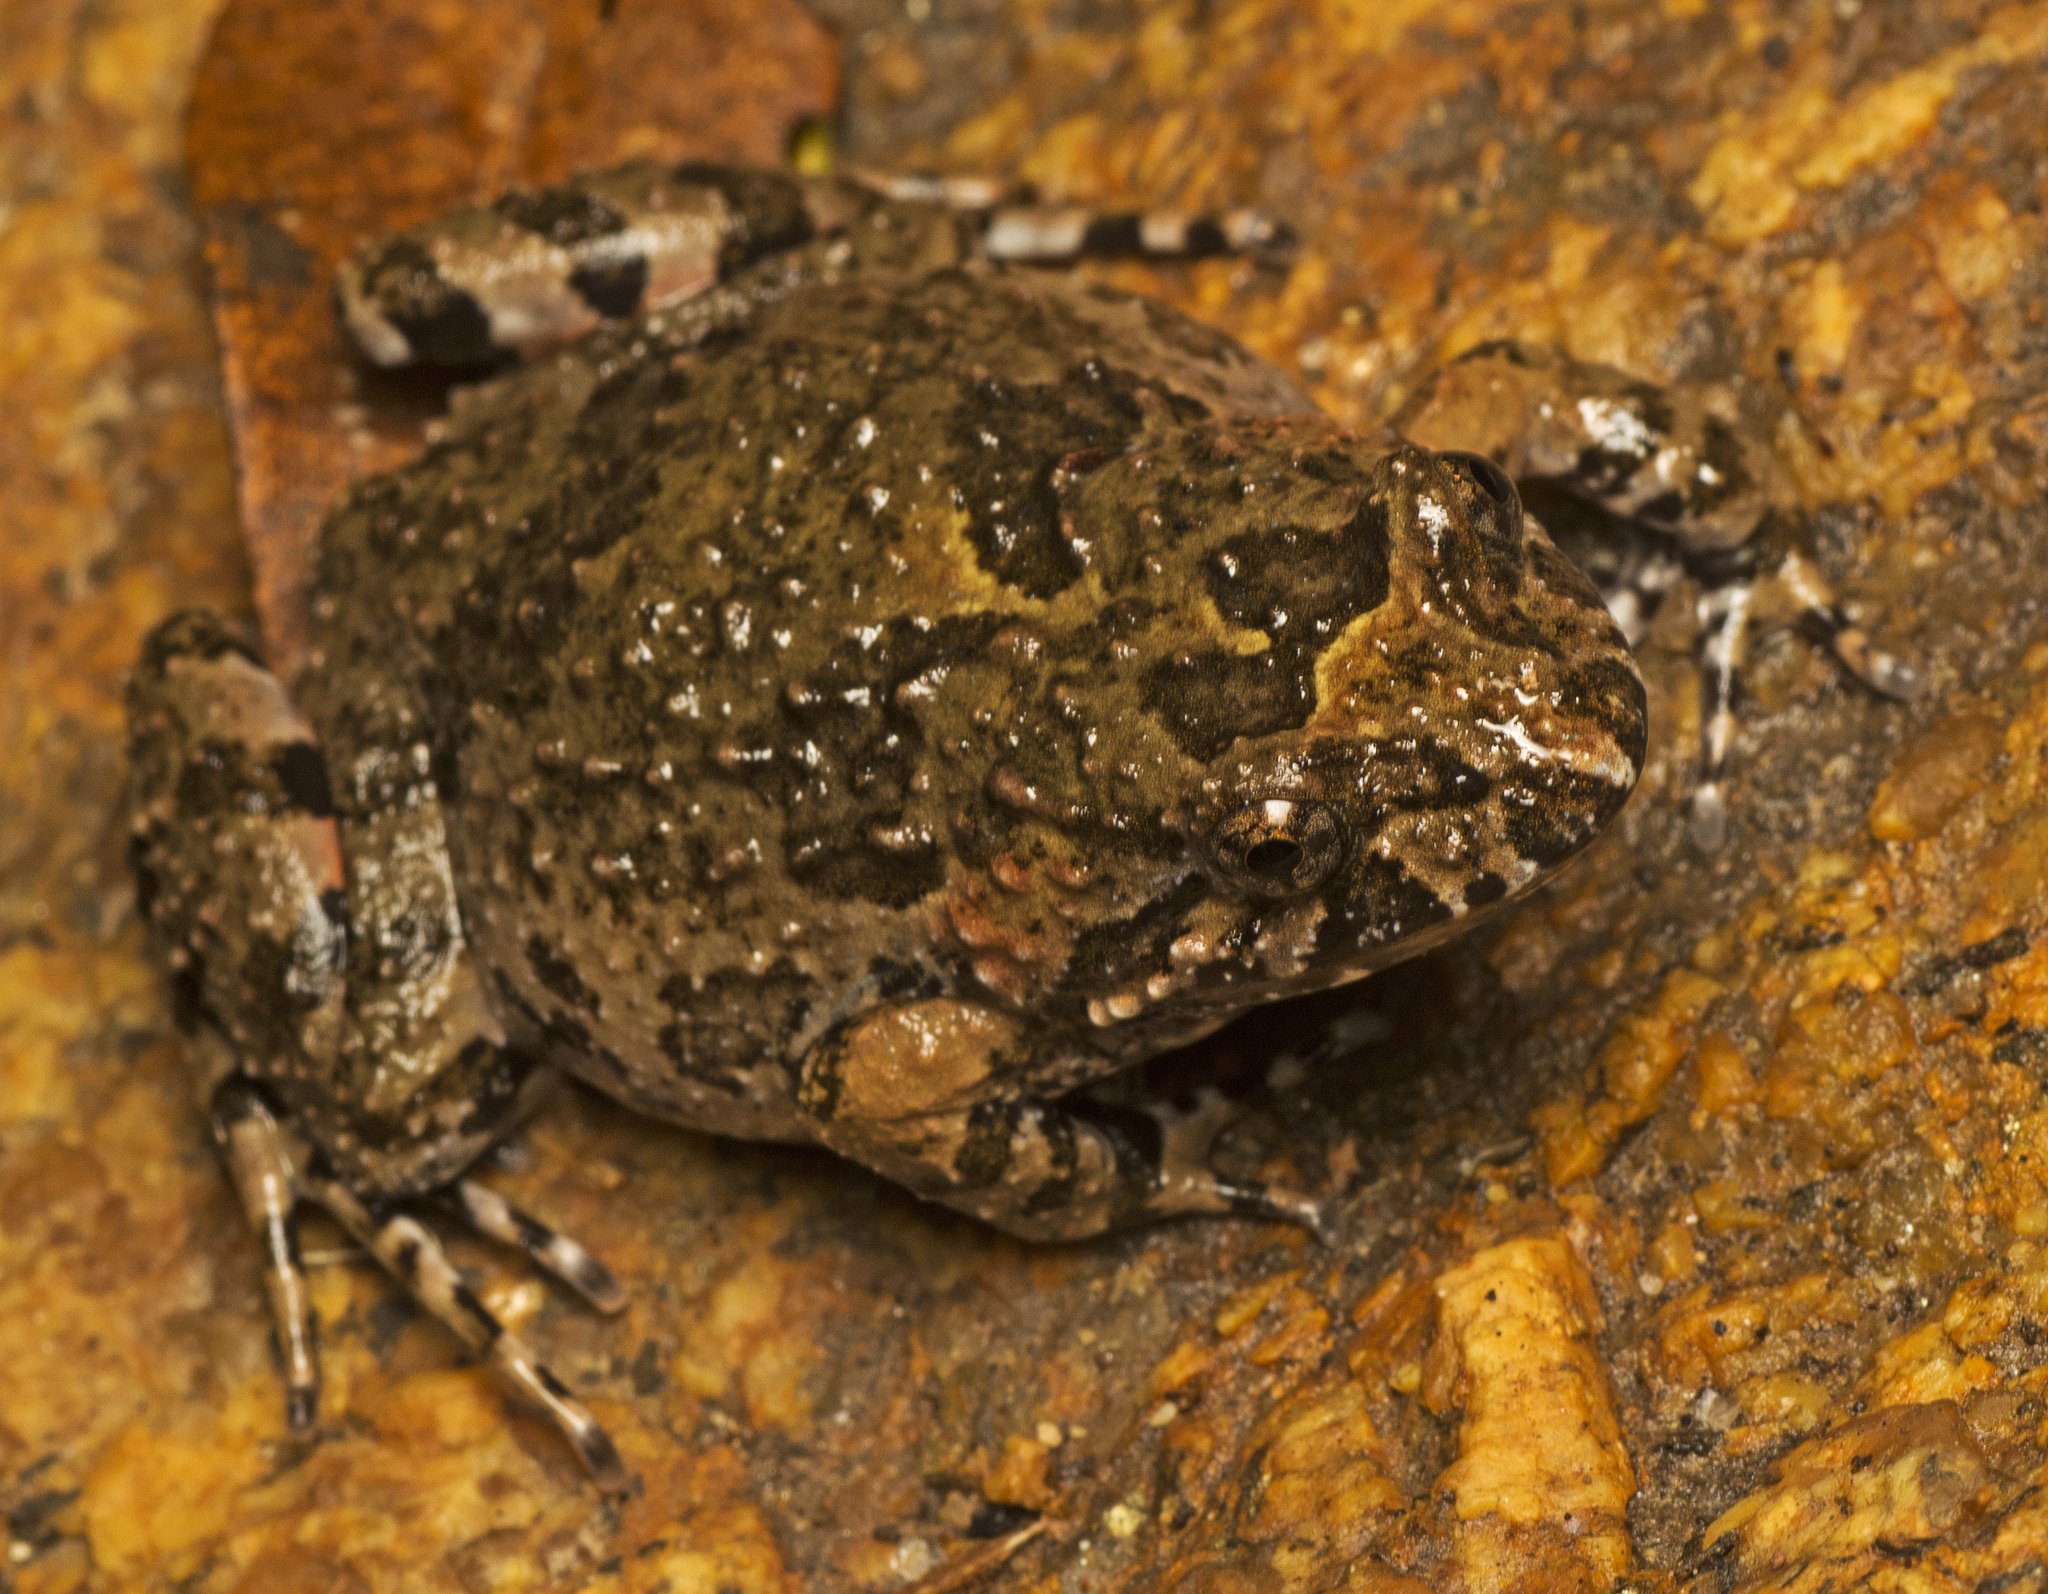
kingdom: Animalia
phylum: Chordata
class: Amphibia
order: Anura
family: Limnodynastidae
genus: Adelotus
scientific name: Adelotus brevis
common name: Tusked frog
